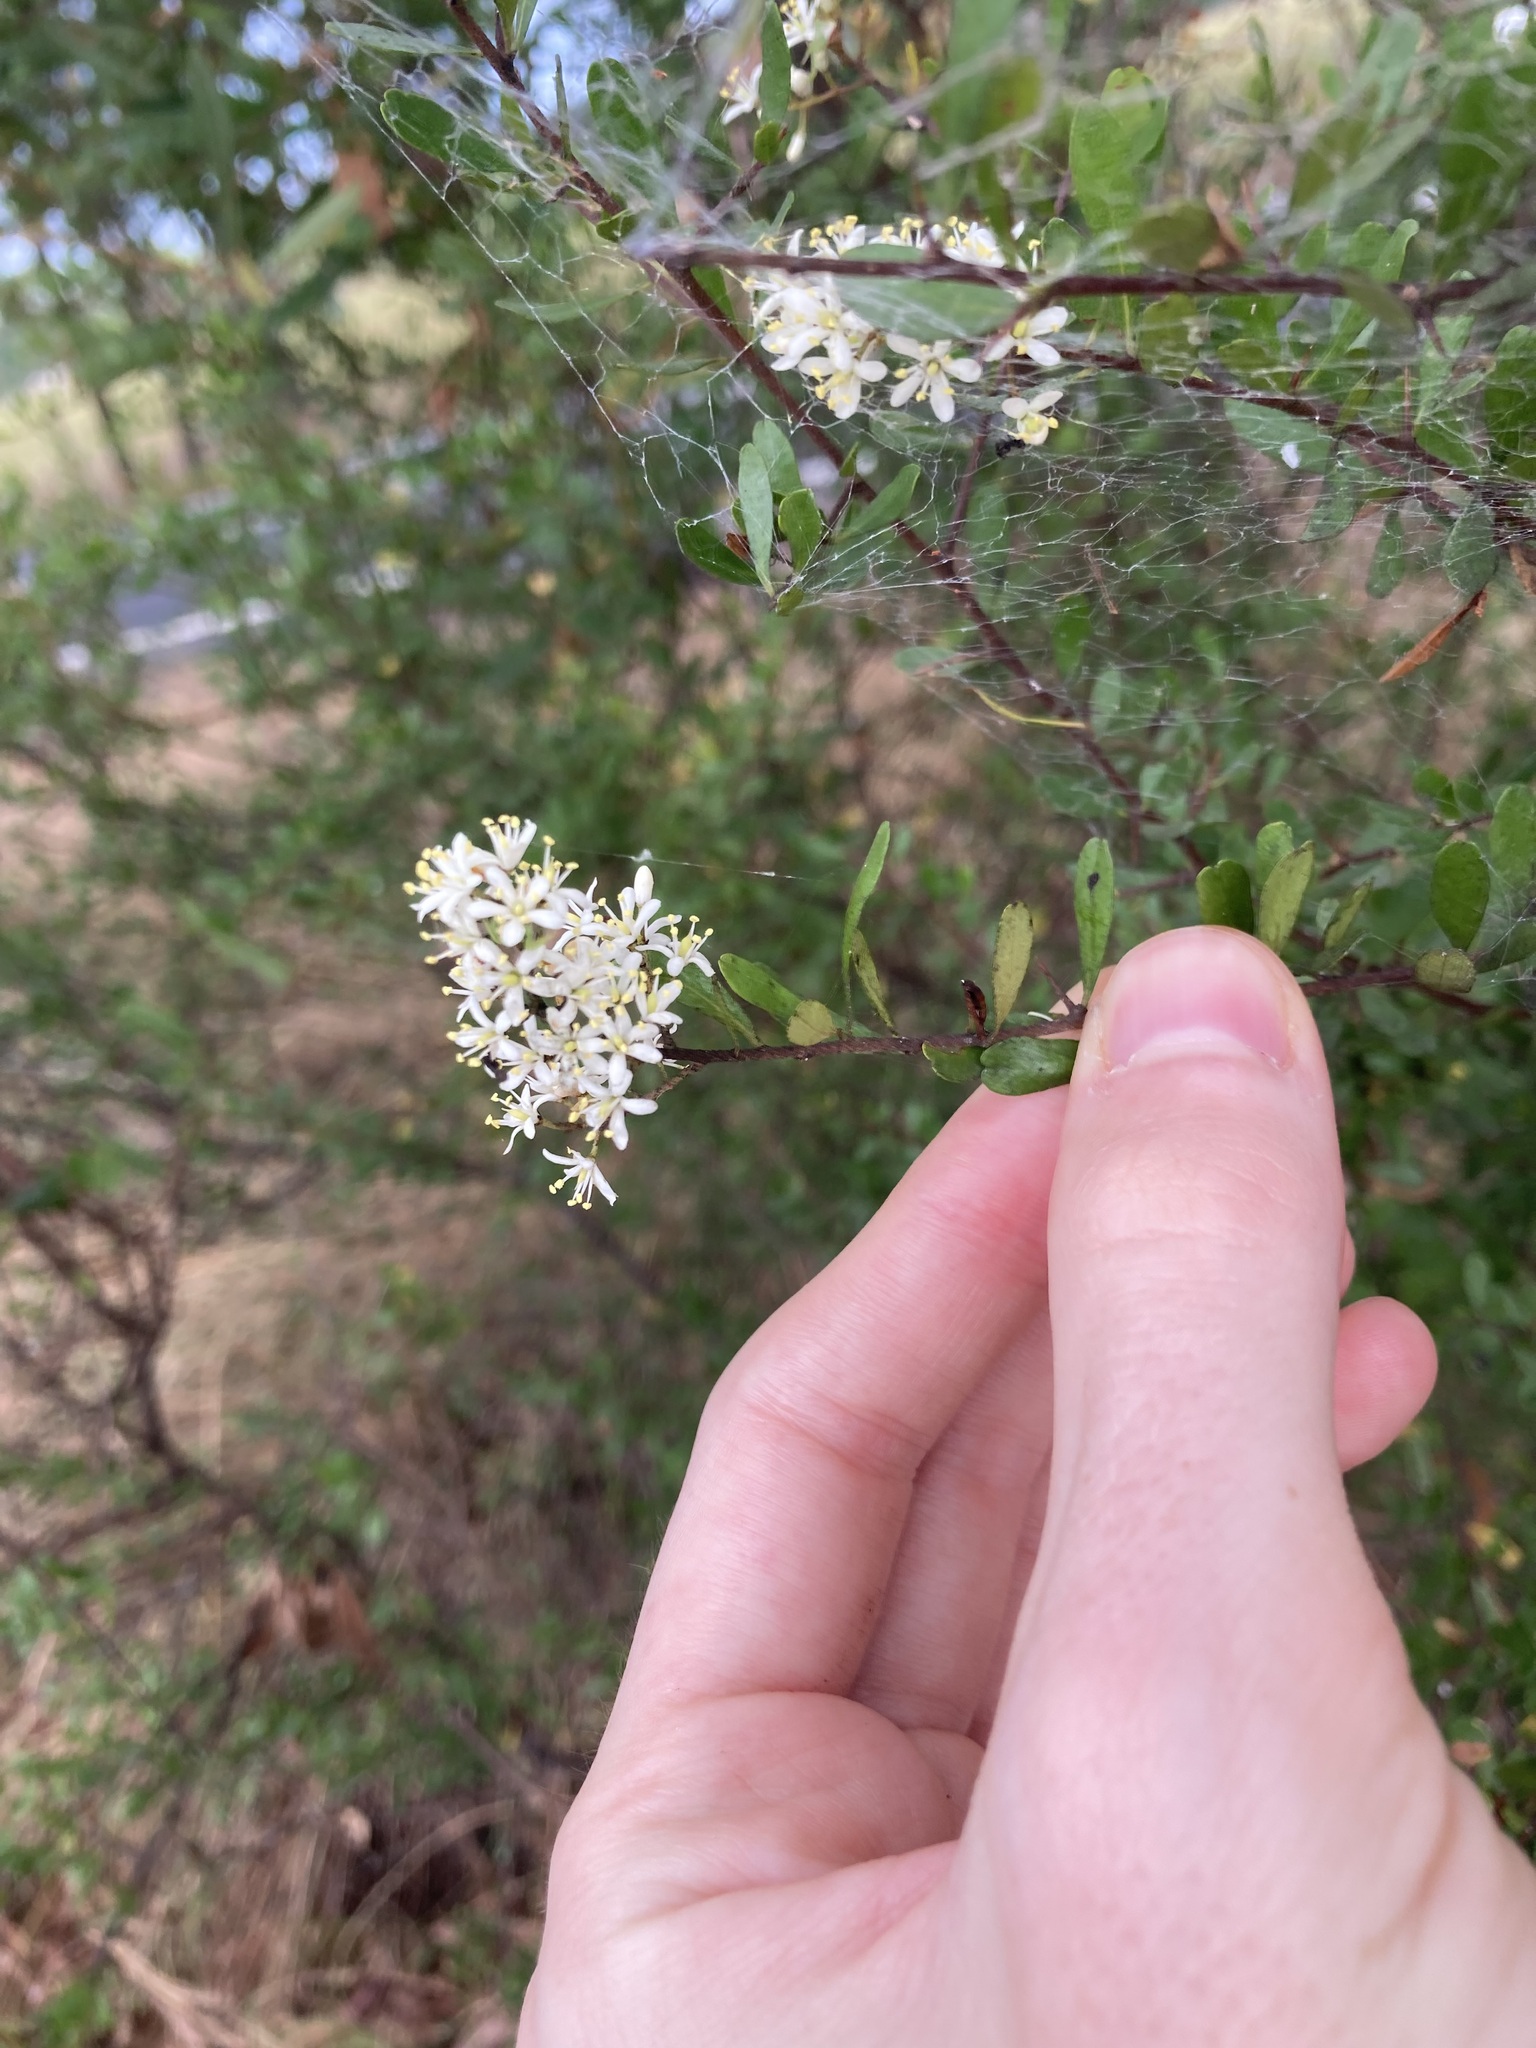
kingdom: Plantae
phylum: Tracheophyta
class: Magnoliopsida
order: Apiales
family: Pittosporaceae
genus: Bursaria
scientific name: Bursaria spinosa
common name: Australian blackthorn
